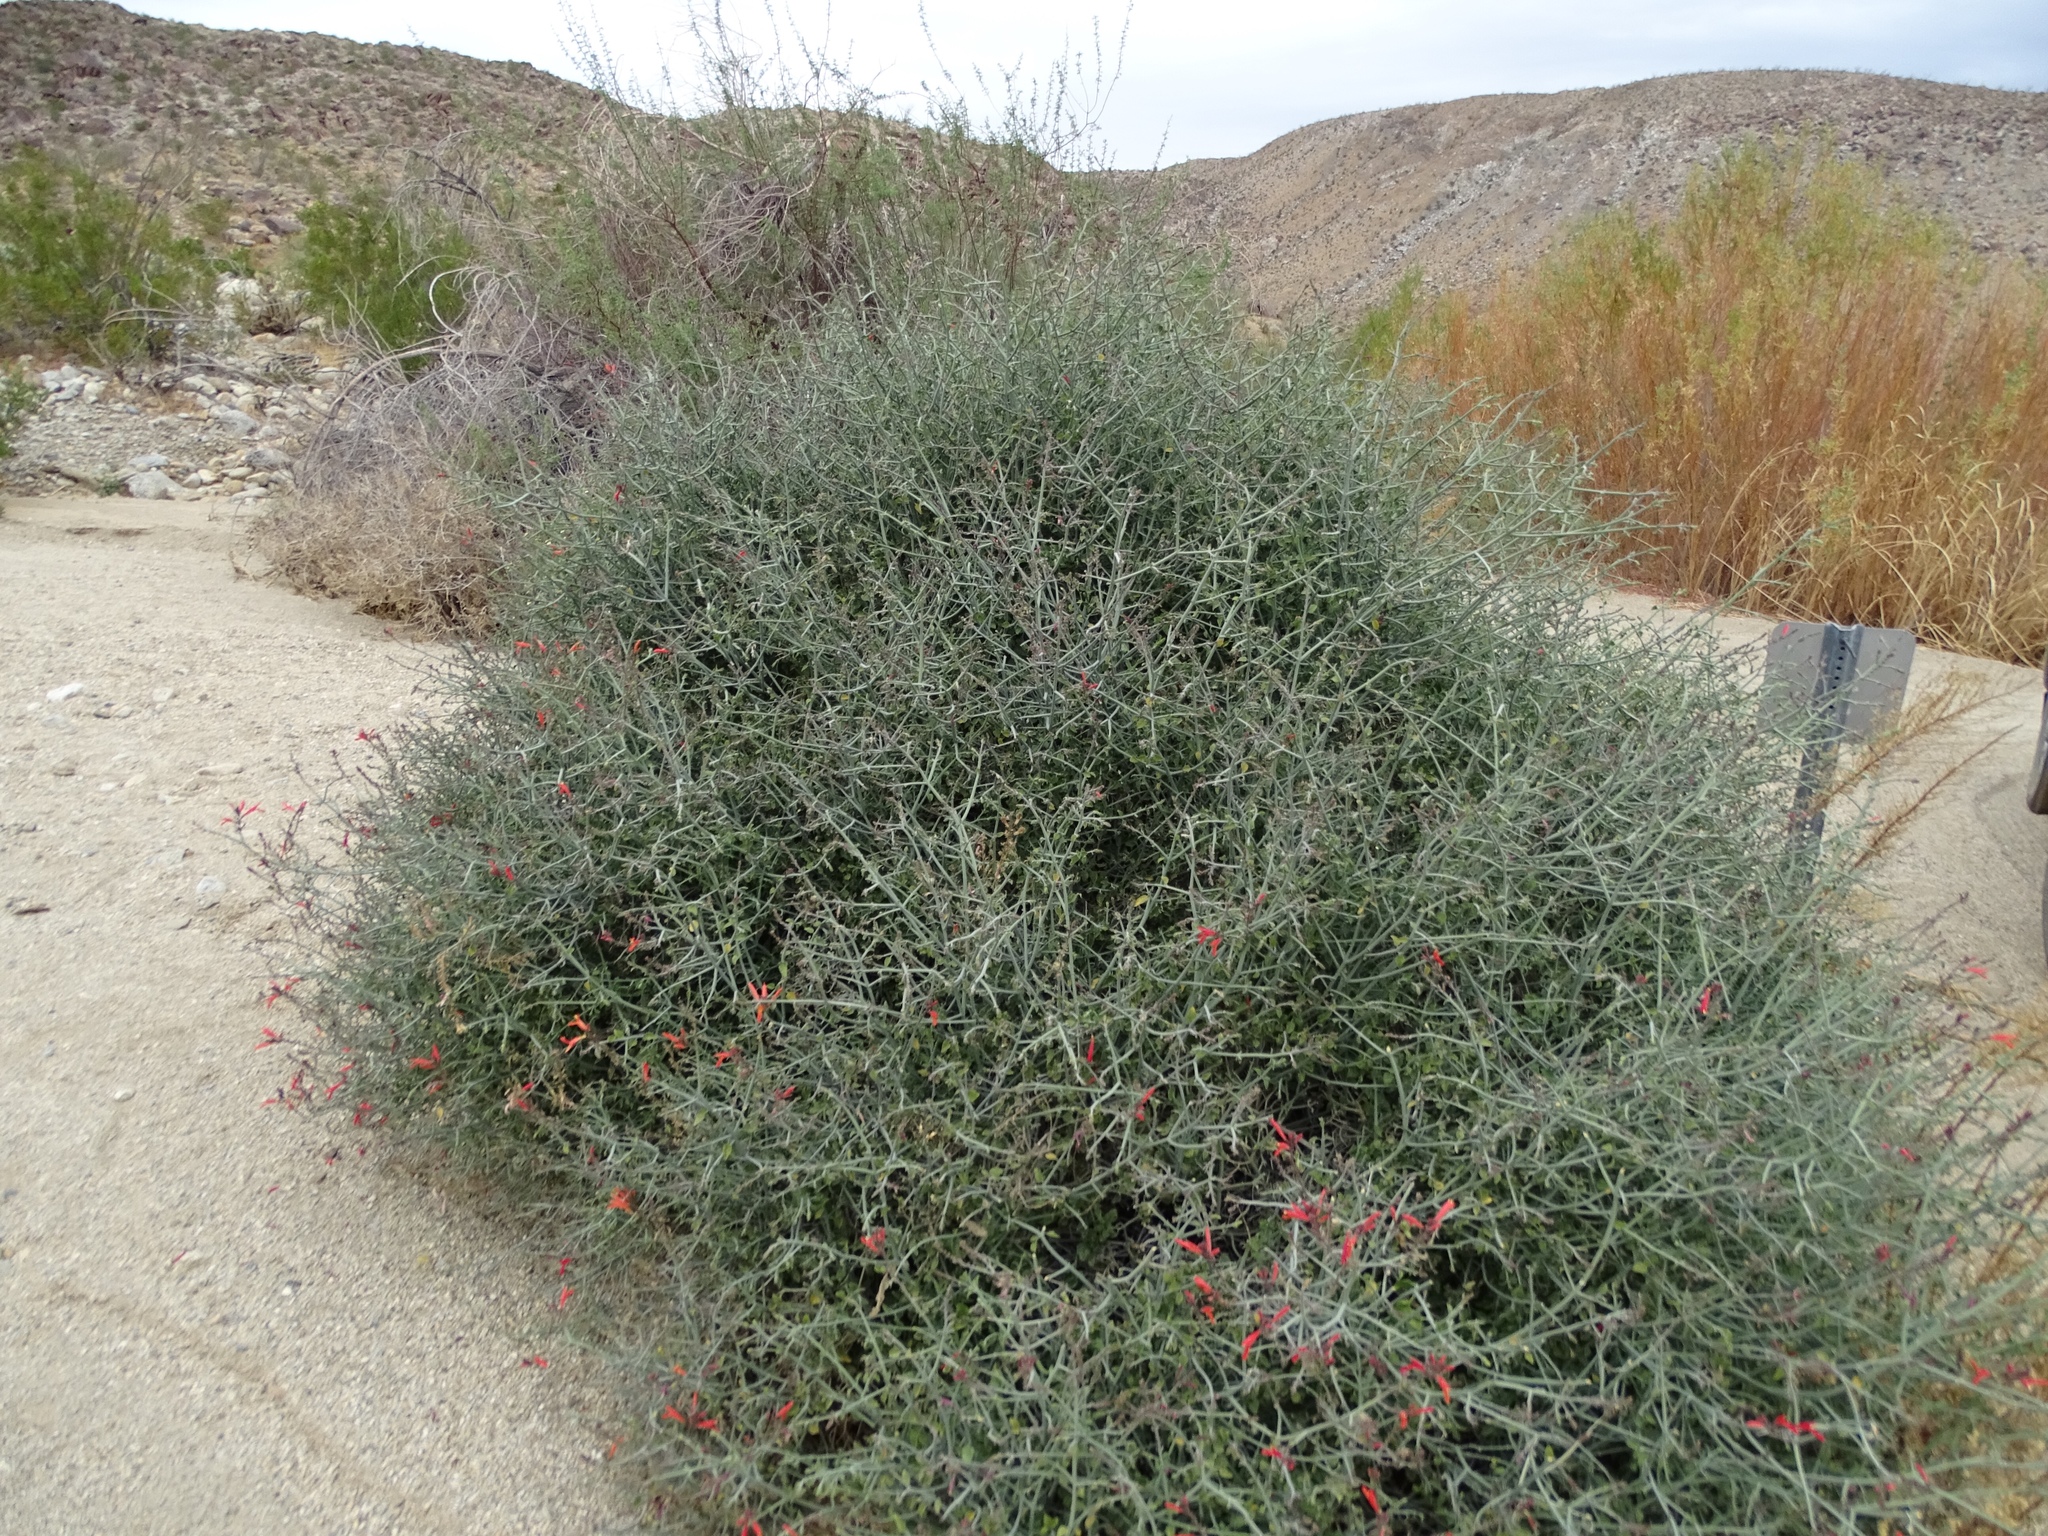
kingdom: Plantae
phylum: Tracheophyta
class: Magnoliopsida
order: Lamiales
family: Acanthaceae
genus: Justicia
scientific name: Justicia californica
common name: Chuparosa-honeysuckle
